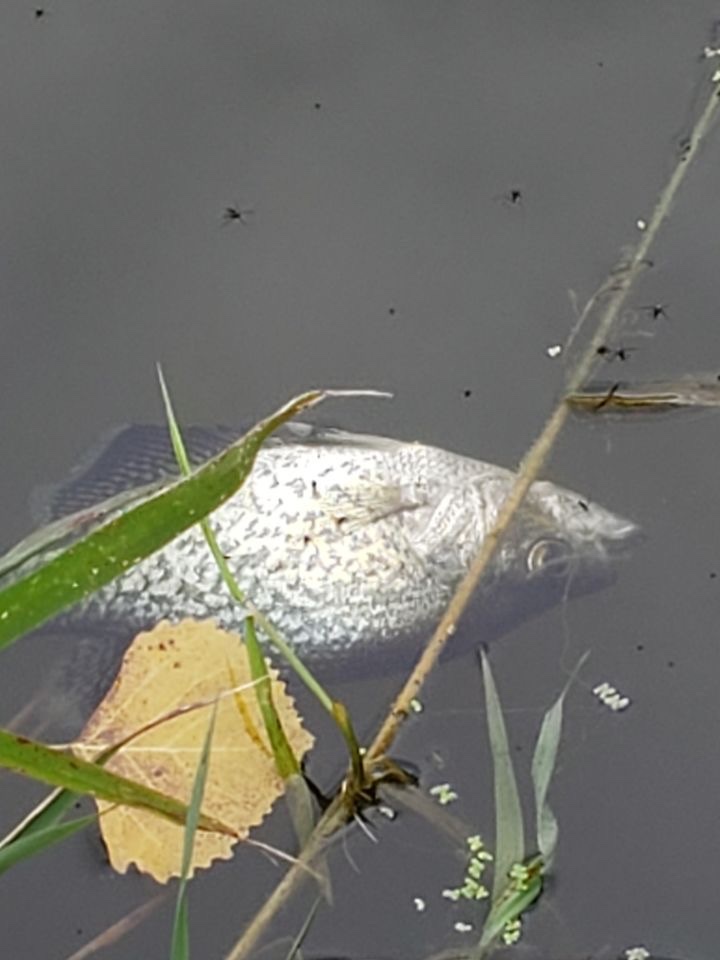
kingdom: Animalia
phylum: Chordata
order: Perciformes
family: Centrarchidae
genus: Pomoxis
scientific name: Pomoxis nigromaculatus
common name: Black crappie
